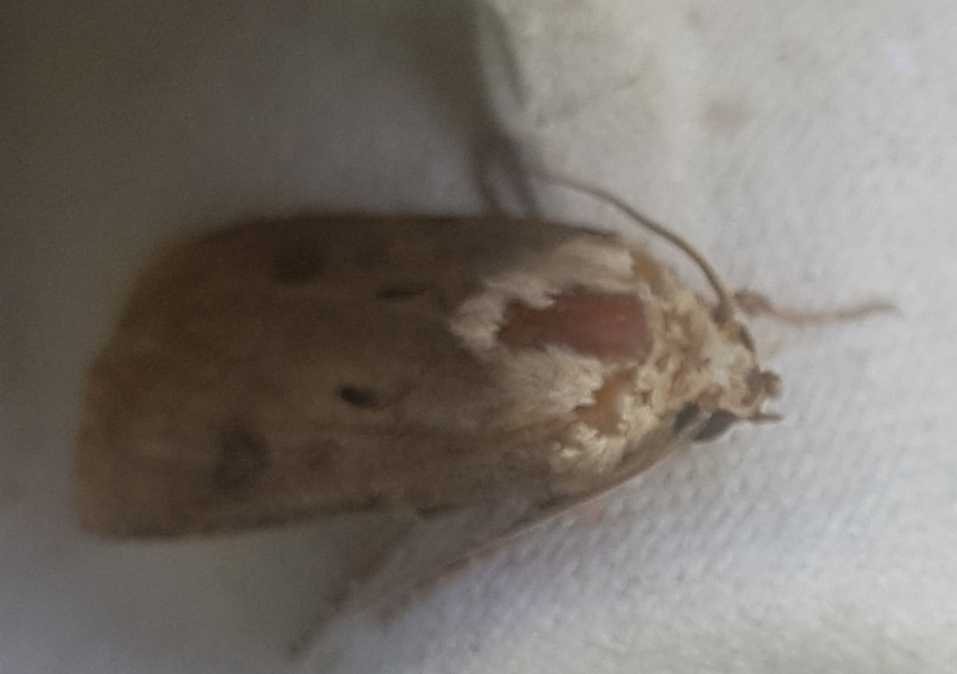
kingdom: Animalia
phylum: Arthropoda
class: Insecta
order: Lepidoptera
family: Noctuidae
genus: Agrotis
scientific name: Agrotis exclamationis
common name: Heart and dart
